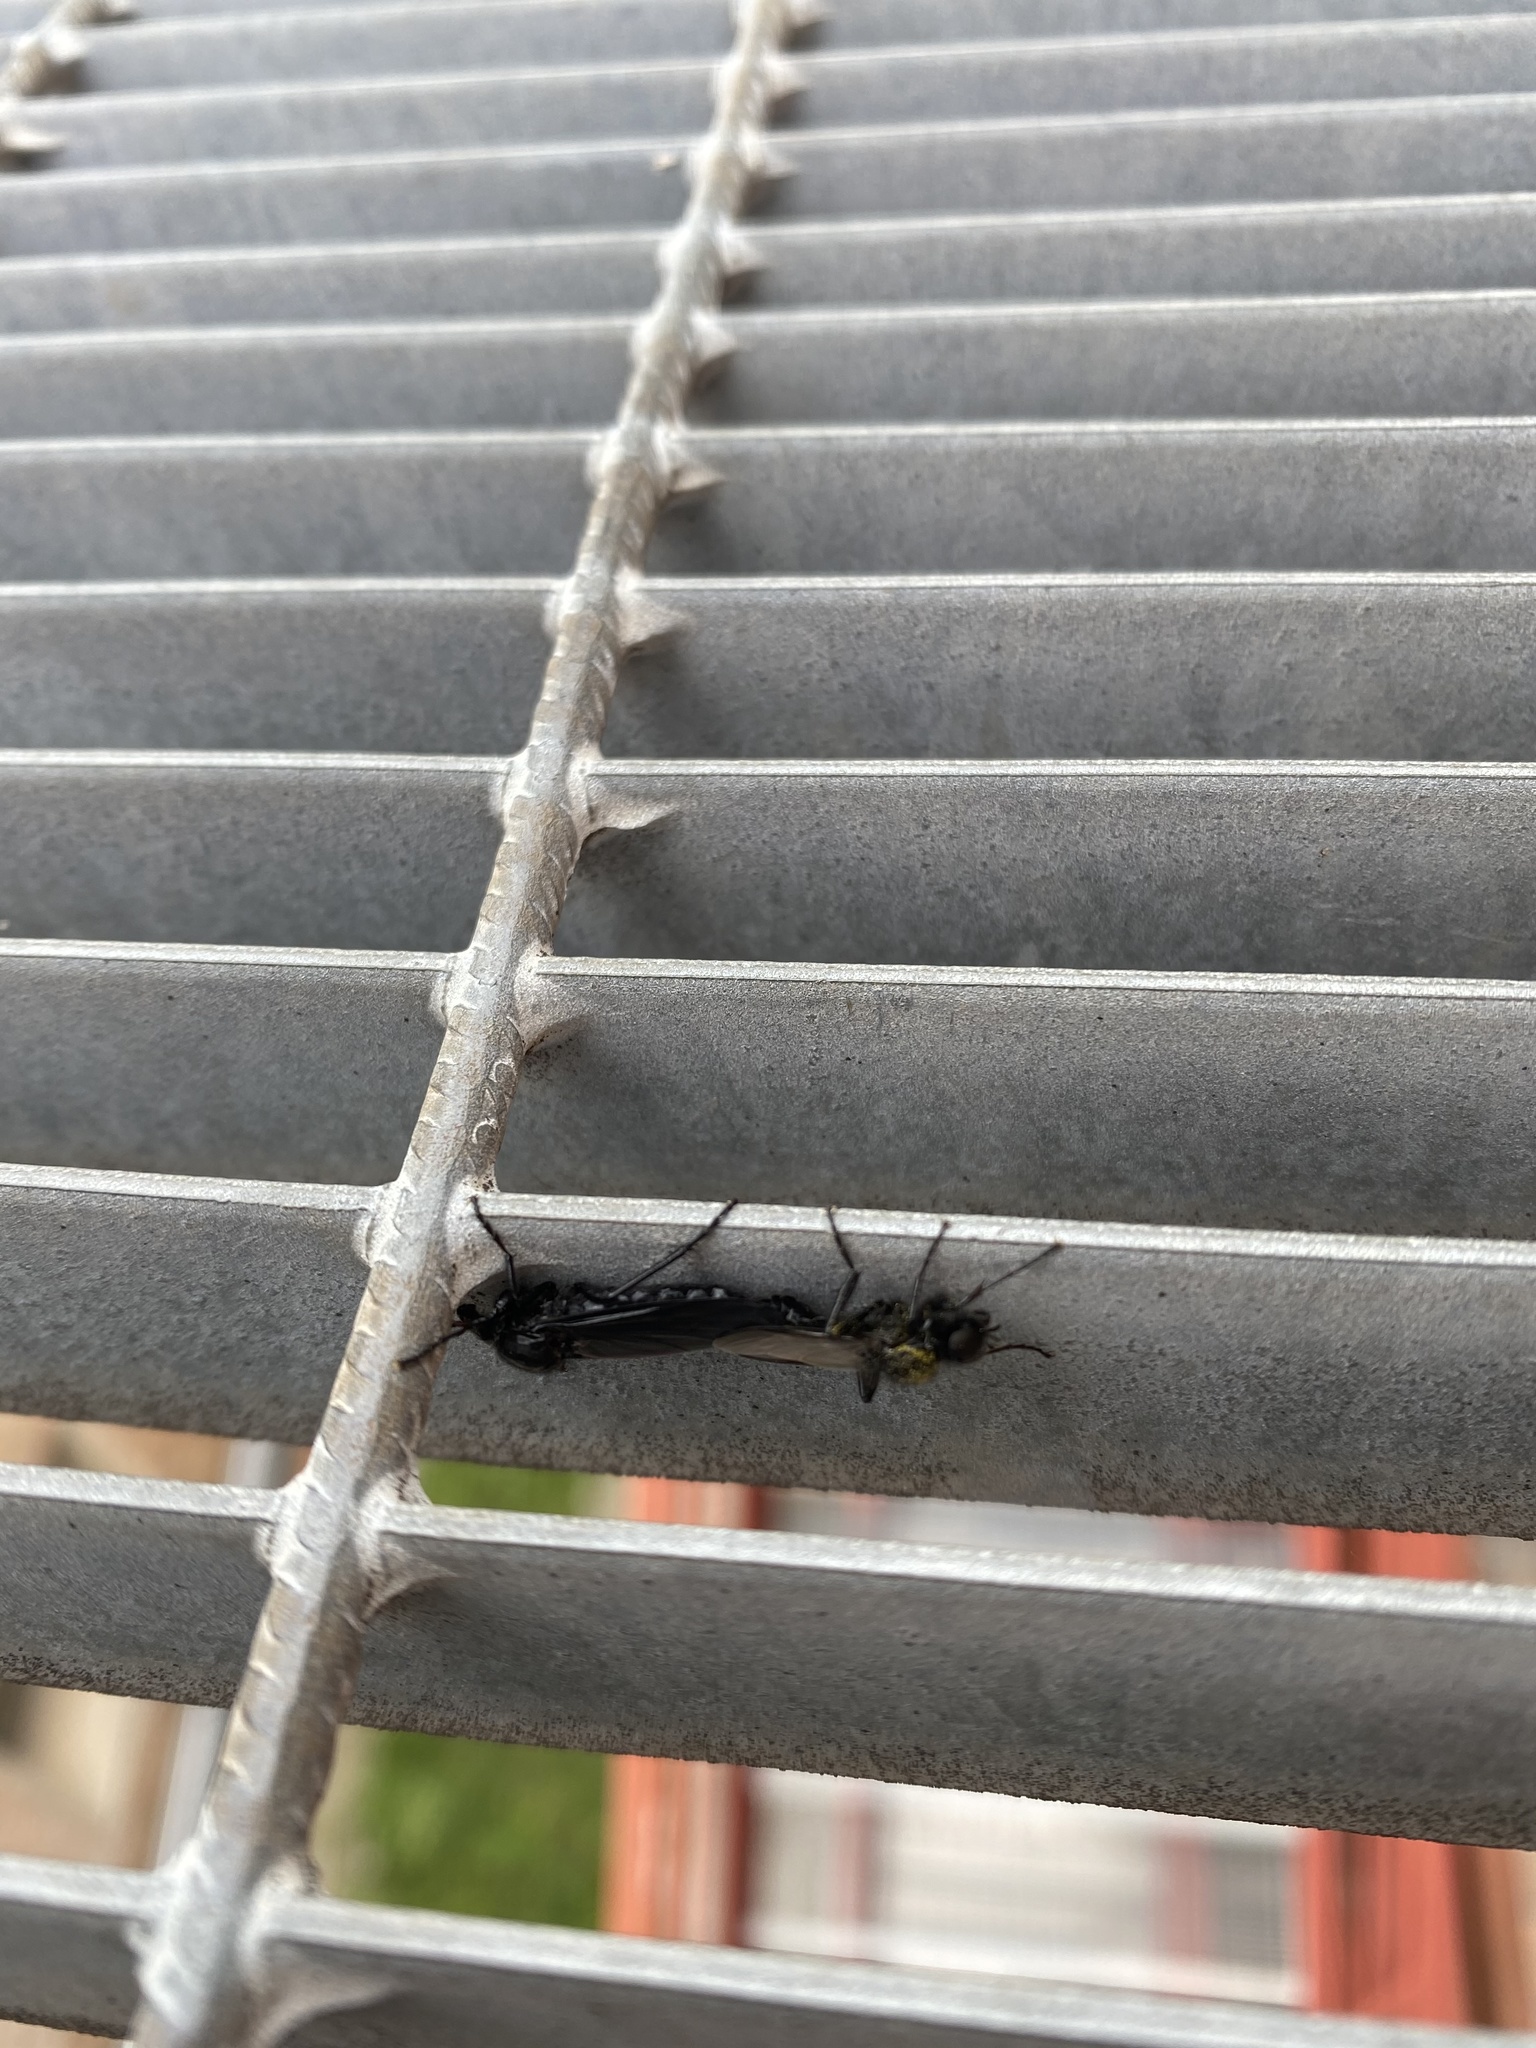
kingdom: Animalia
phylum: Arthropoda
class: Insecta
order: Diptera
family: Bibionidae
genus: Bibio
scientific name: Bibio marci
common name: St marks fly
